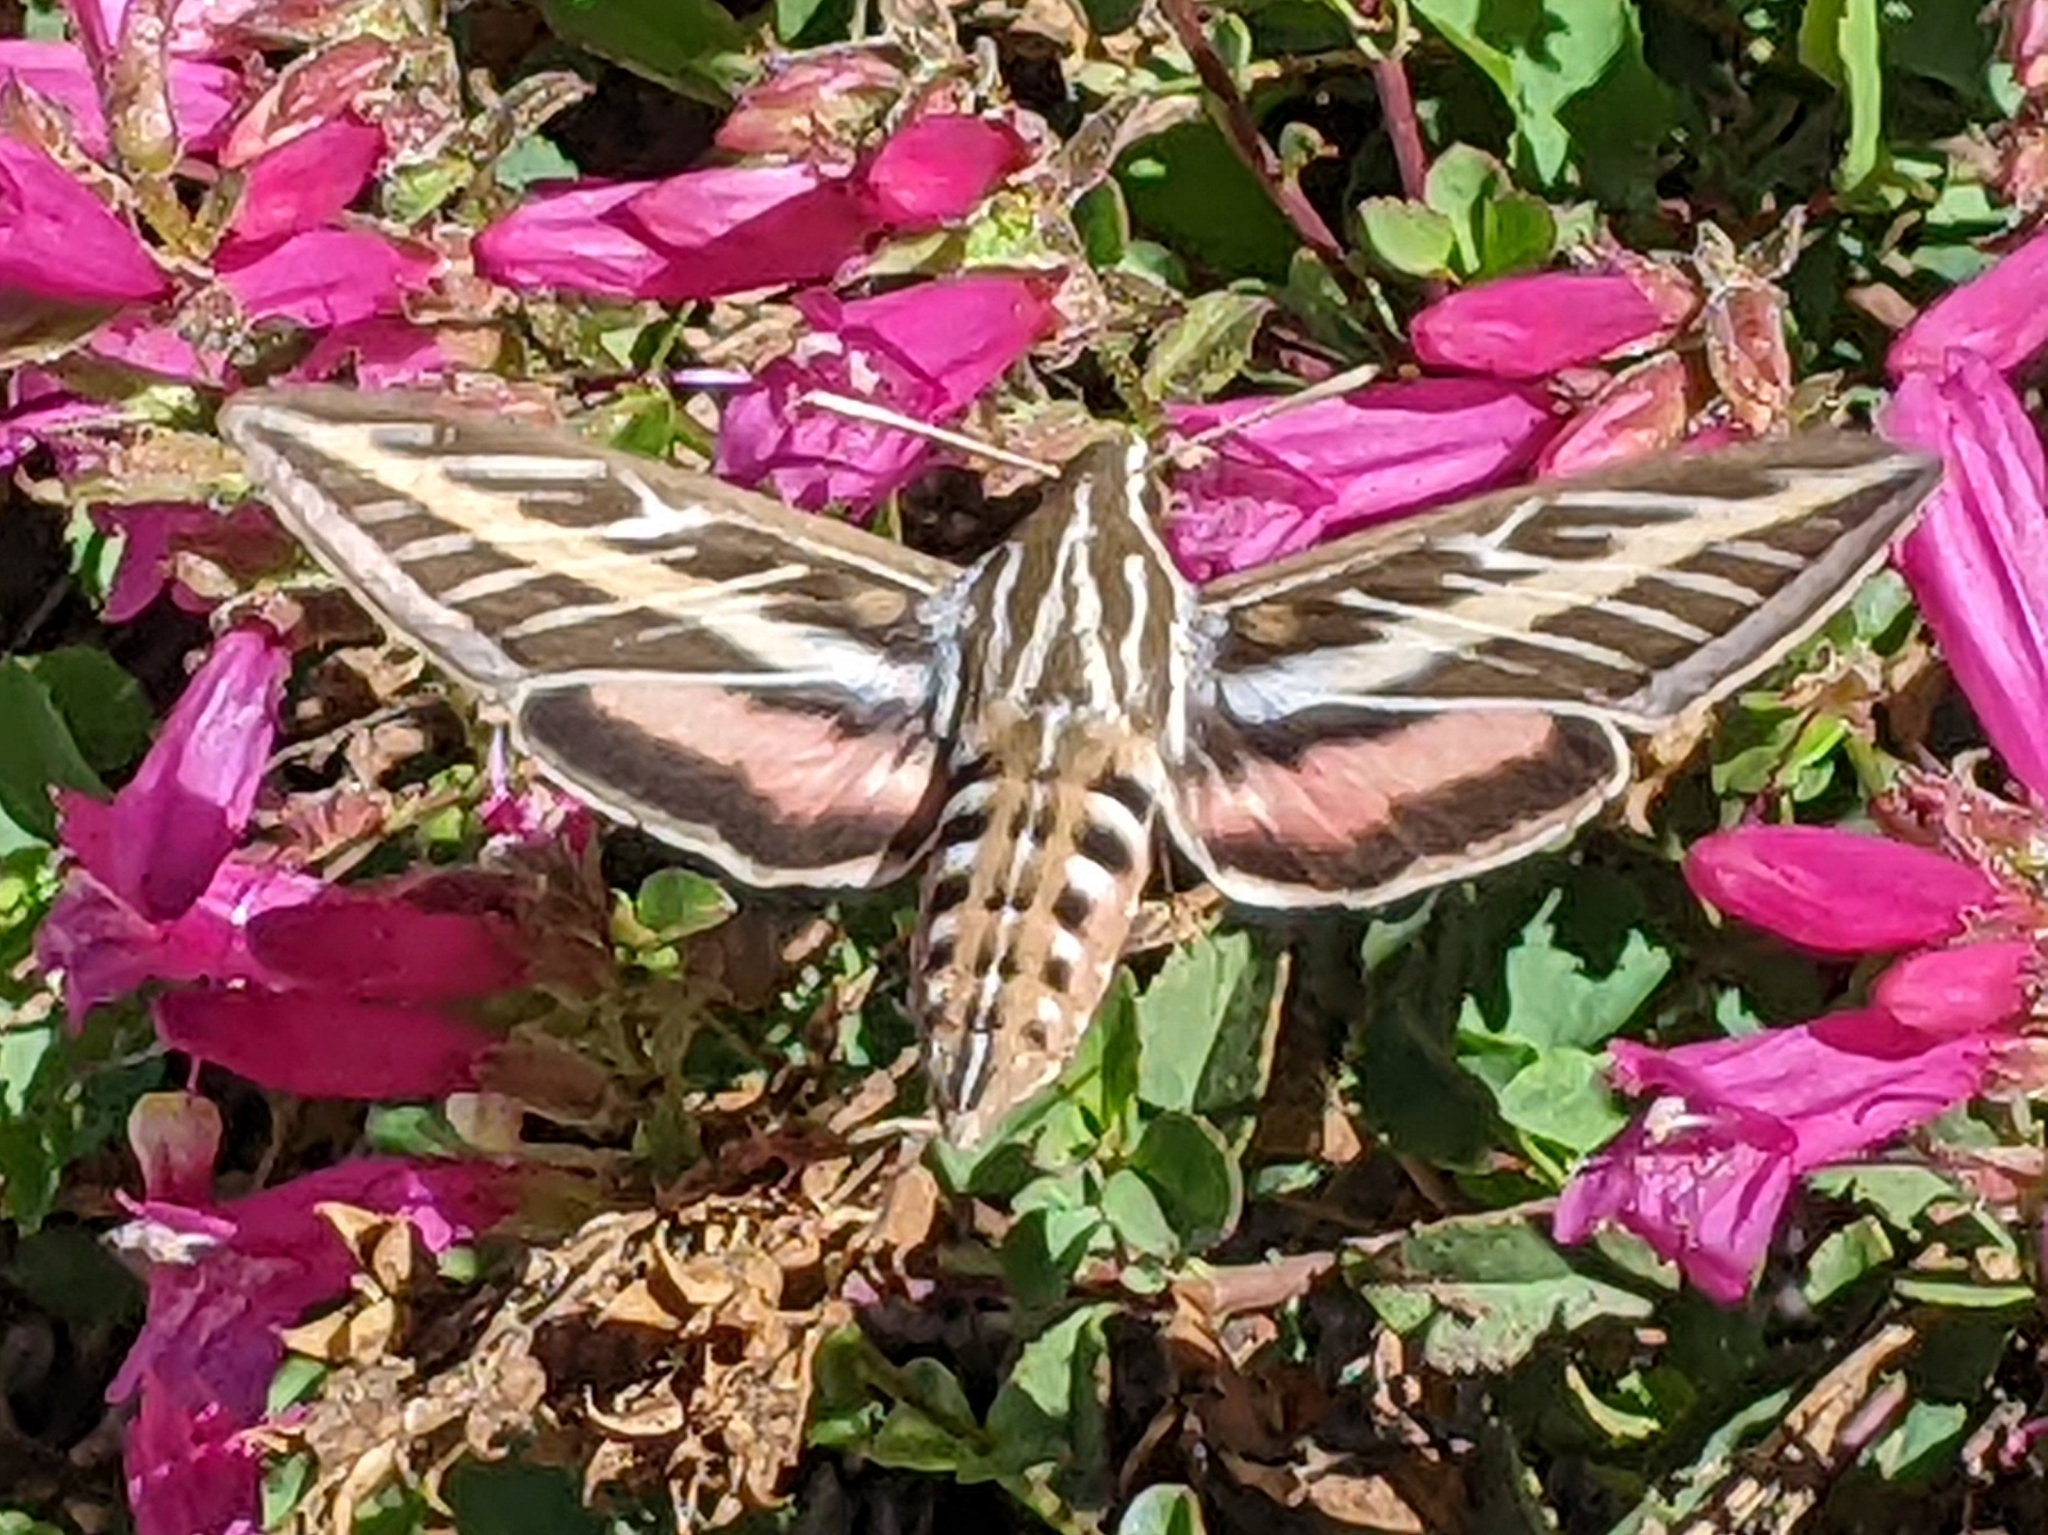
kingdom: Animalia
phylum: Arthropoda
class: Insecta
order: Lepidoptera
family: Sphingidae
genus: Hyles
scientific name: Hyles lineata
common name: White-lined sphinx
